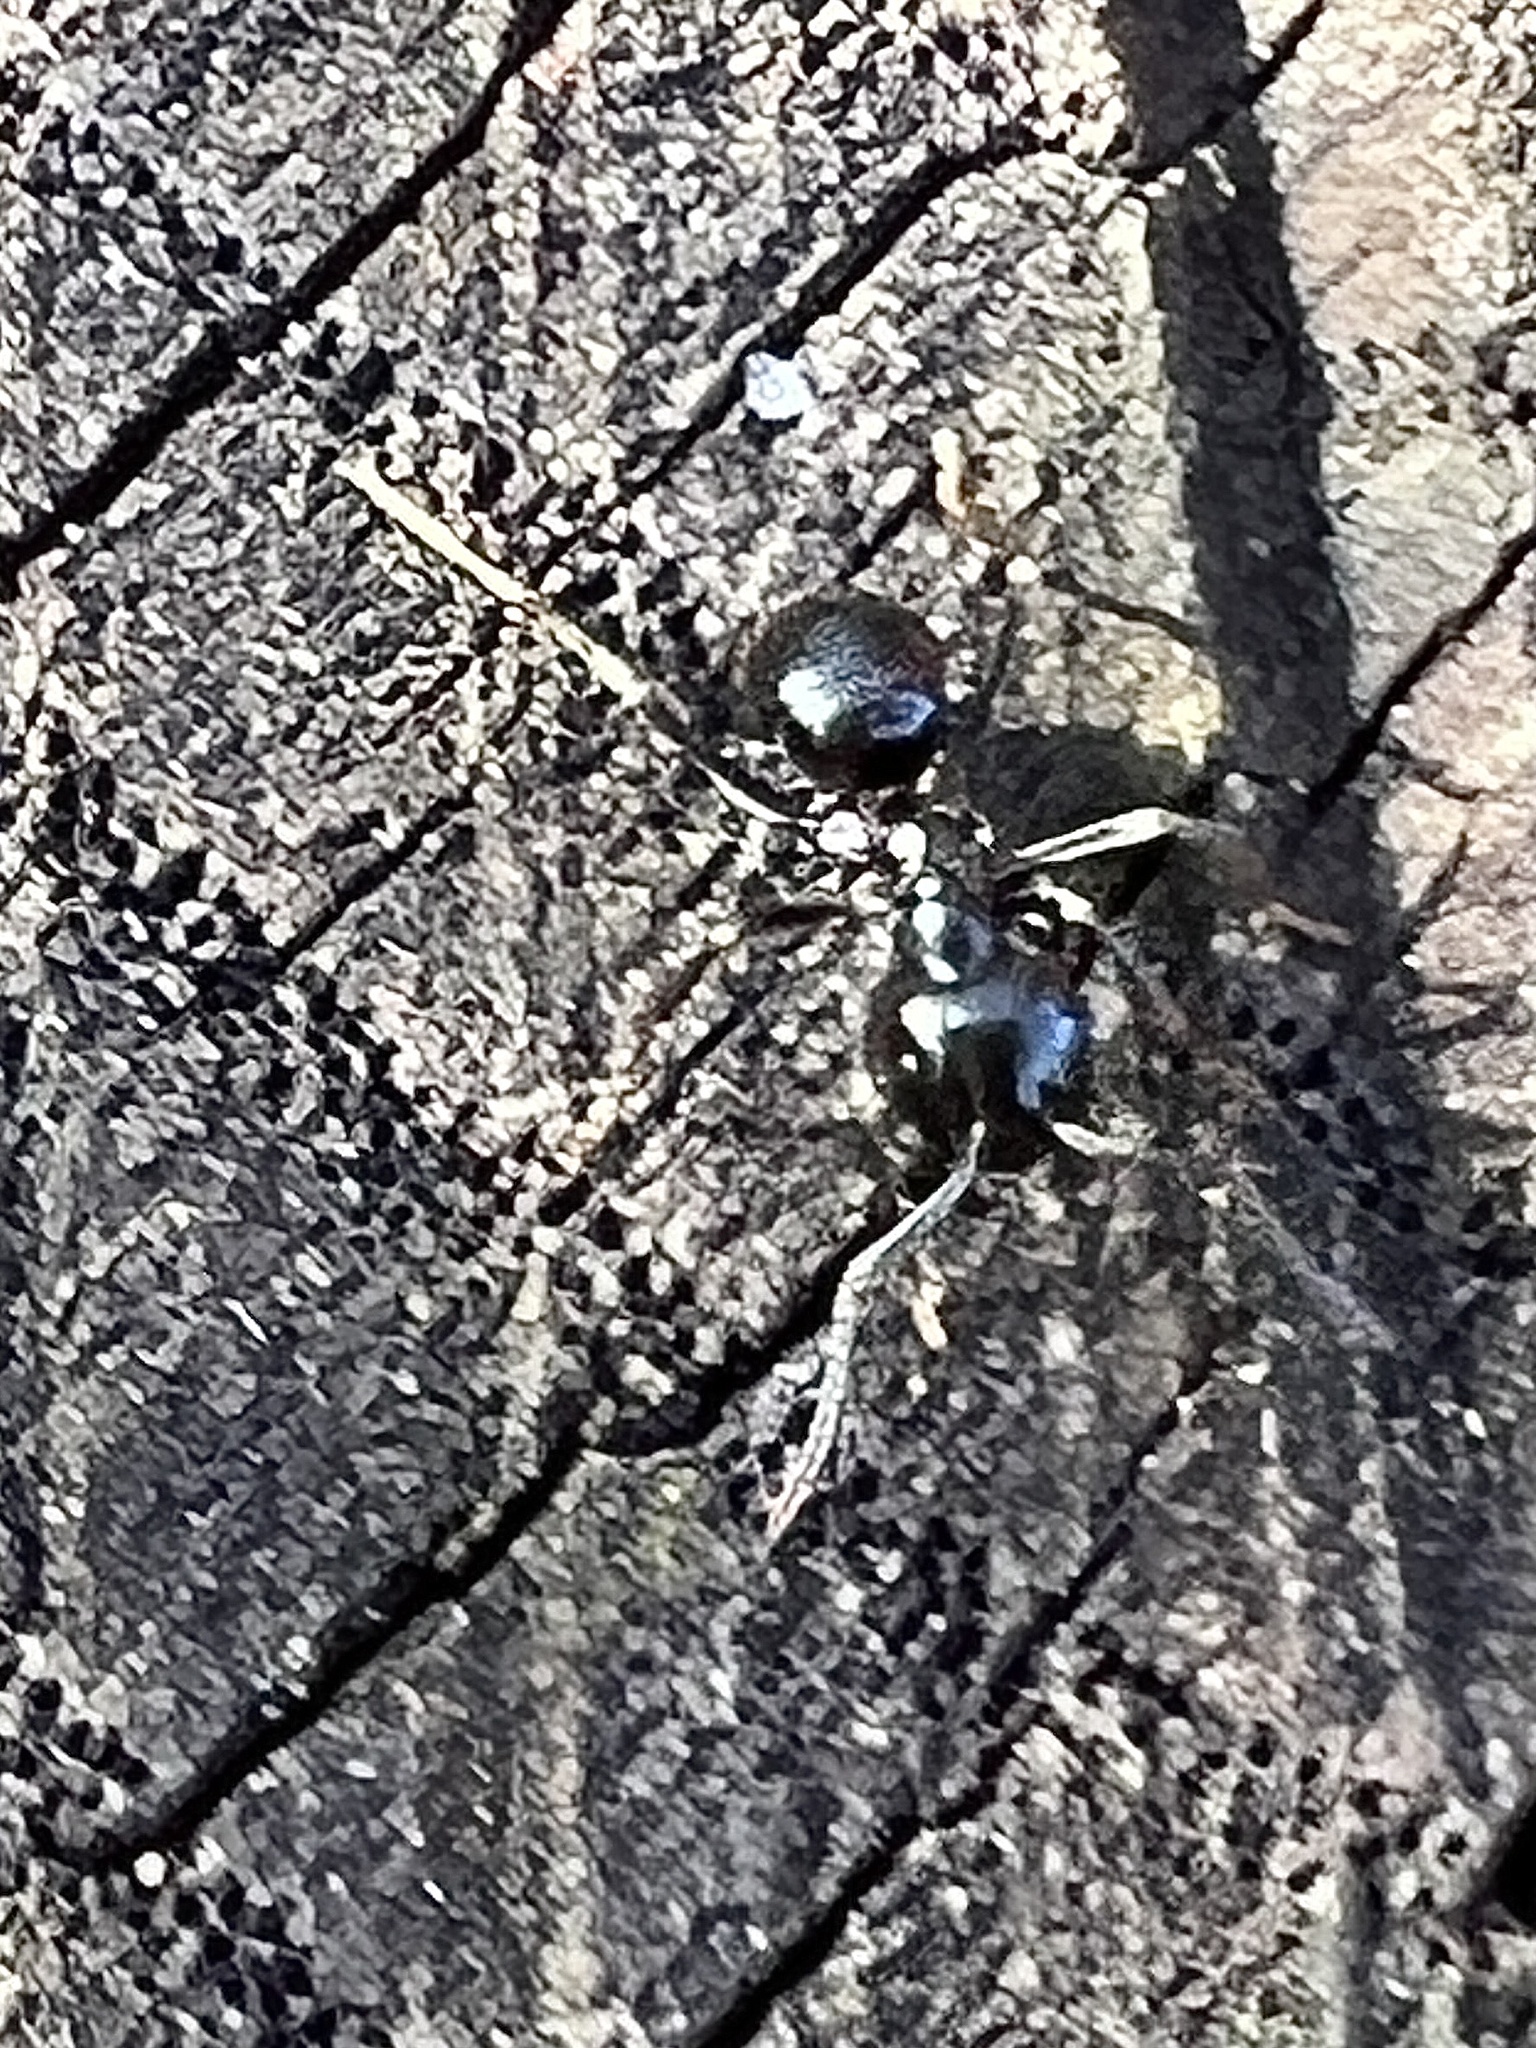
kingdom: Animalia
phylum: Arthropoda
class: Insecta
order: Hymenoptera
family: Formicidae
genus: Lasius
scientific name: Lasius fuliginosus
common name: Jet ant
